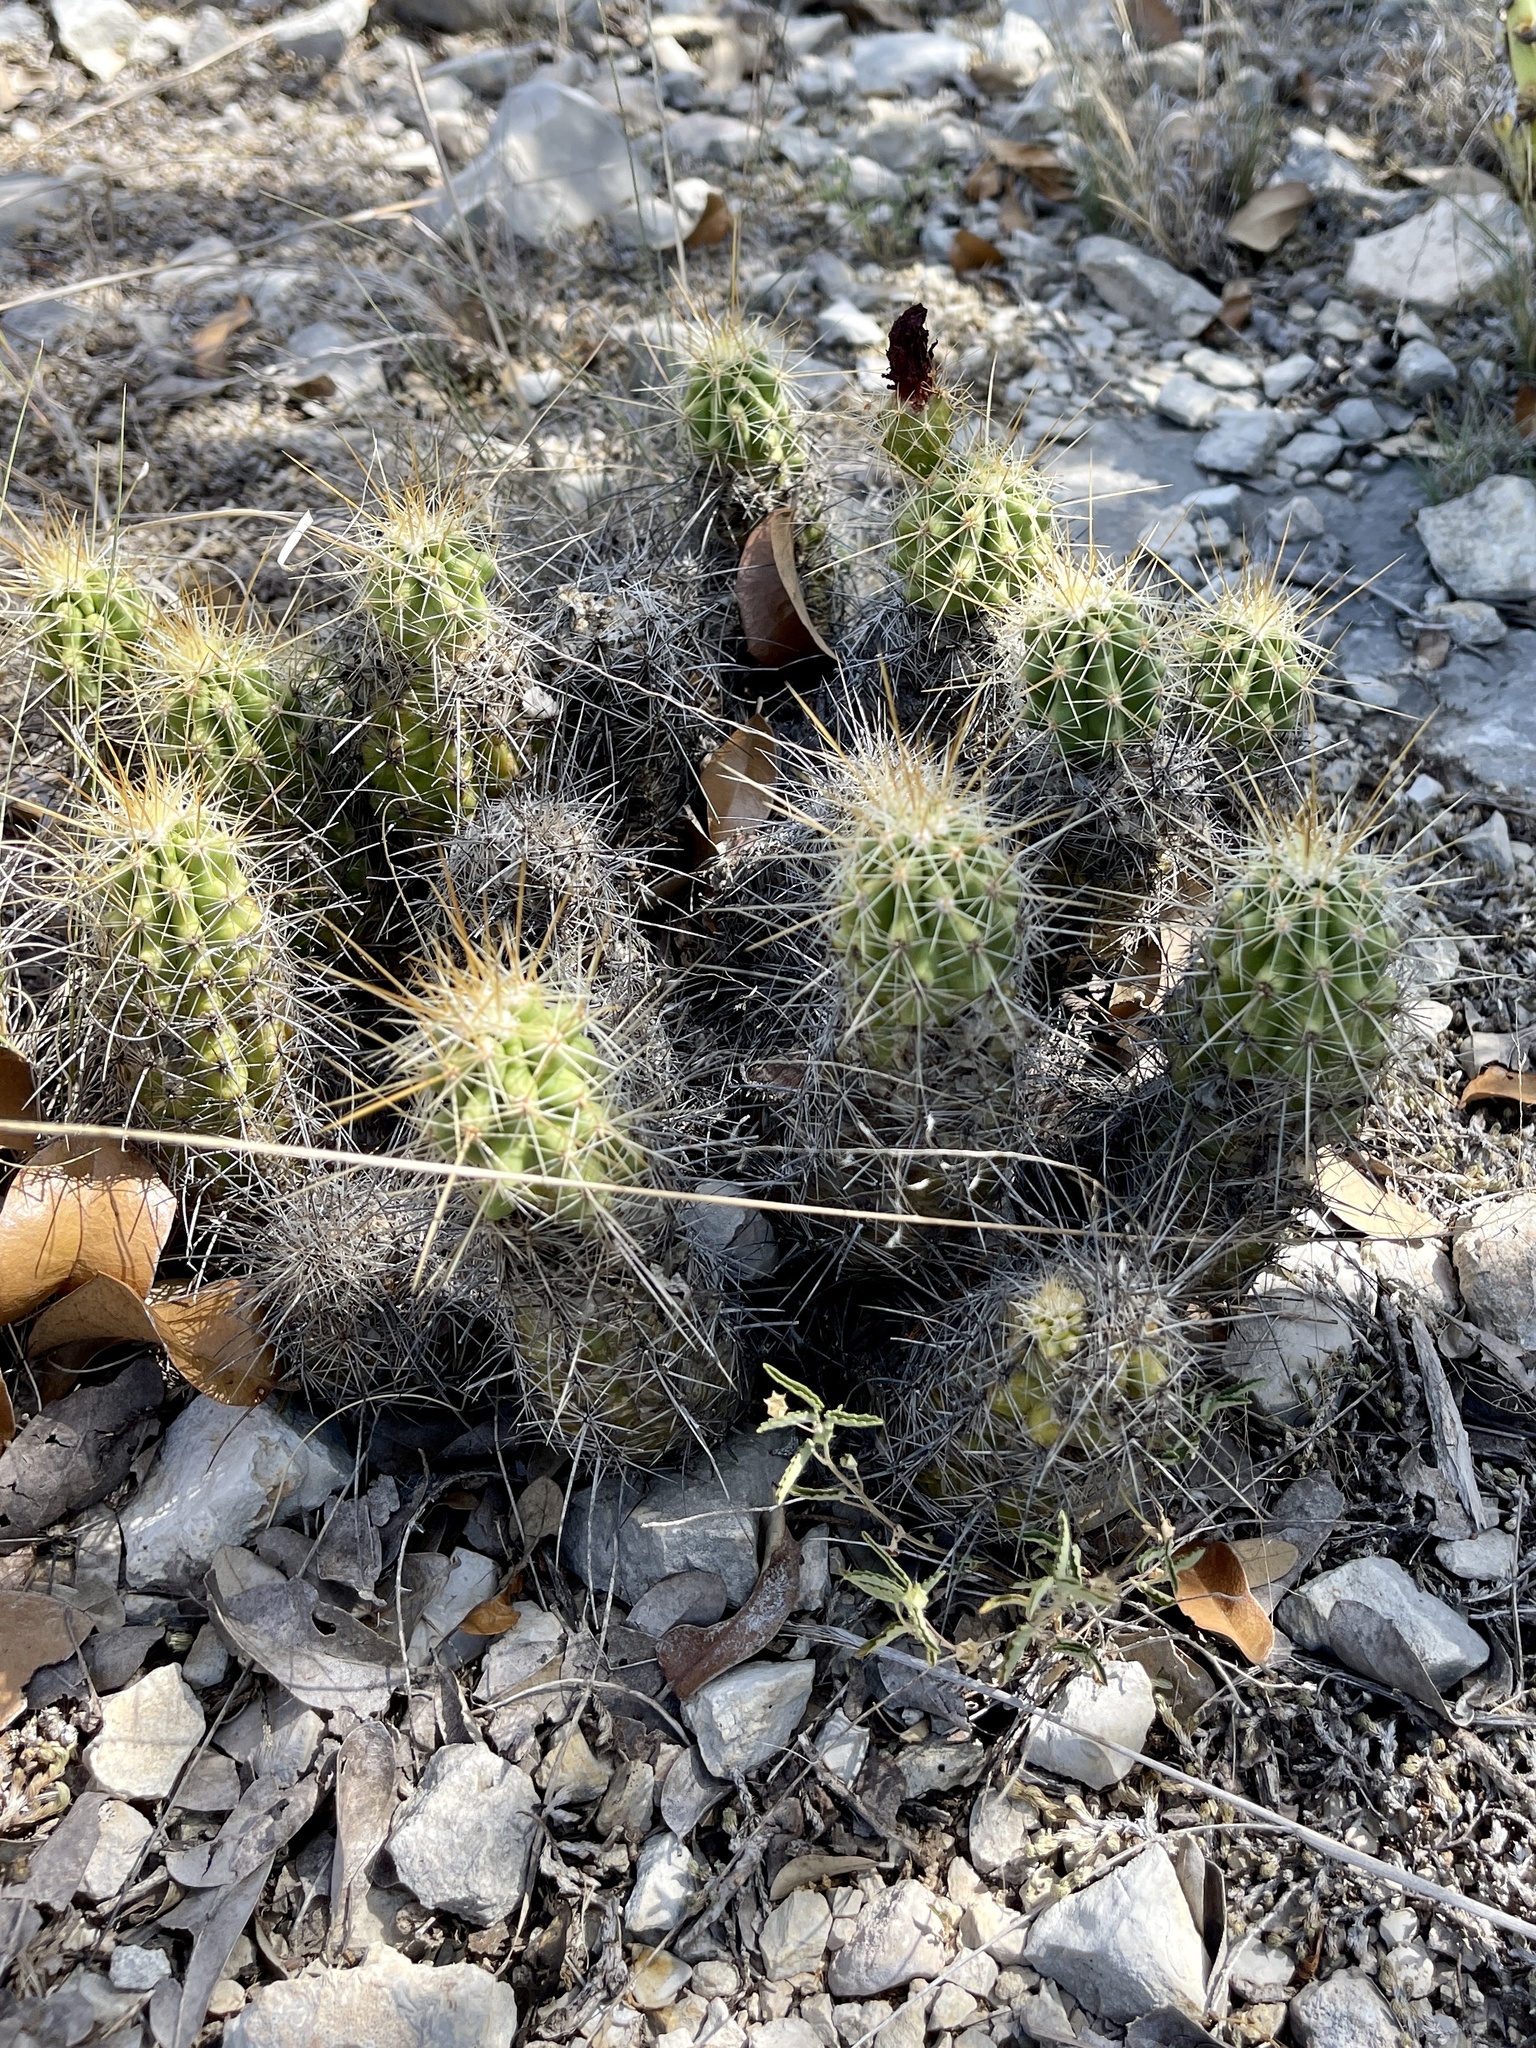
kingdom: Plantae
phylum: Tracheophyta
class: Magnoliopsida
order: Caryophyllales
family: Cactaceae
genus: Echinocereus
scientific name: Echinocereus enneacanthus
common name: Pitaya
